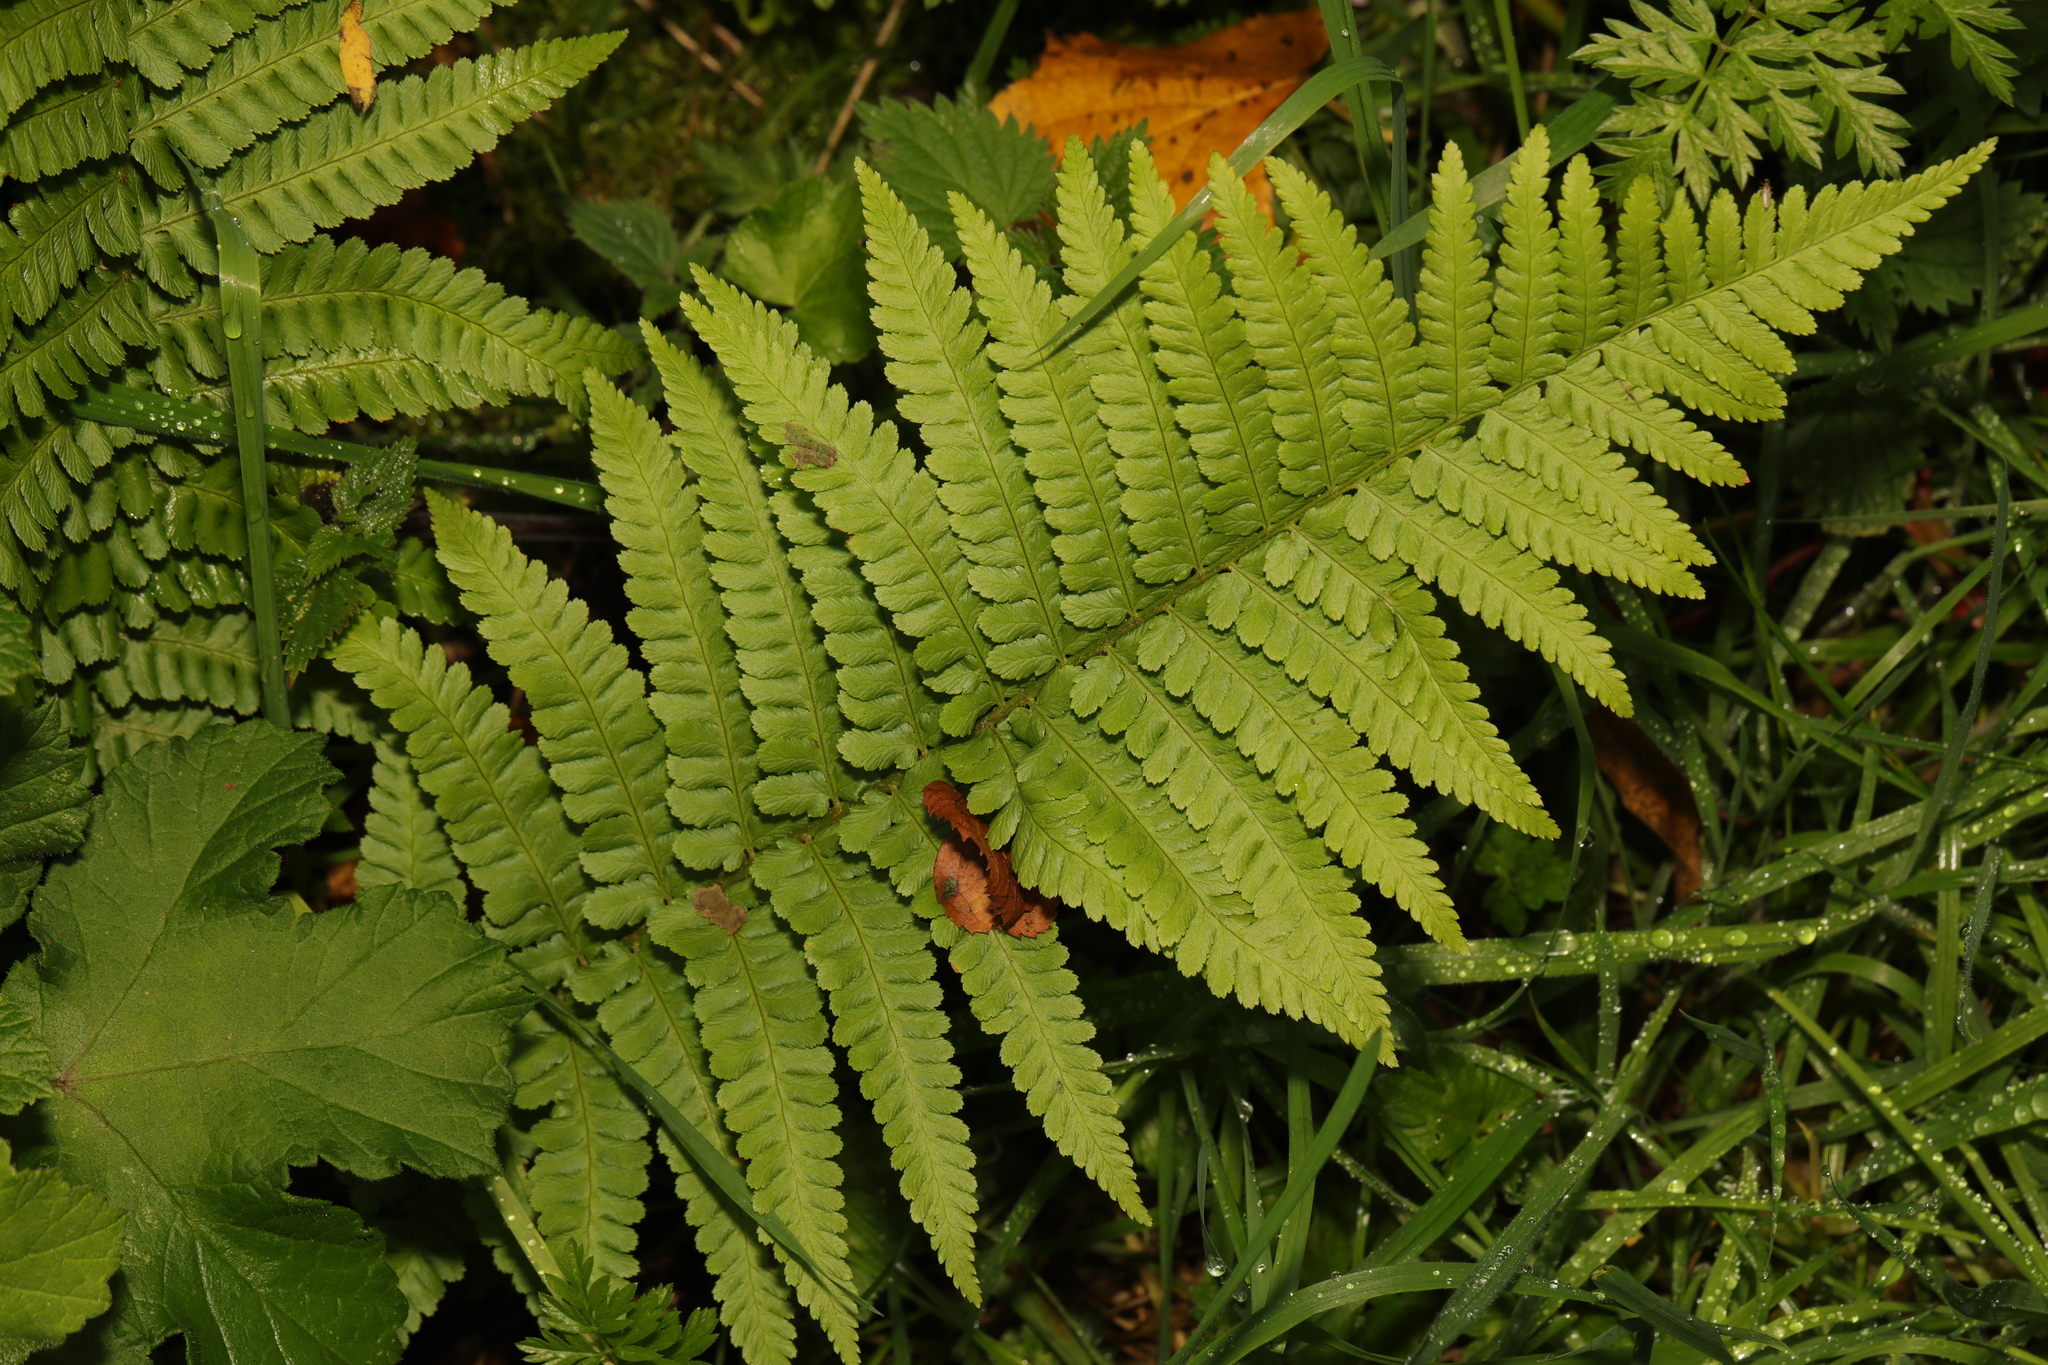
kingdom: Plantae
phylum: Tracheophyta
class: Polypodiopsida
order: Polypodiales
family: Dryopteridaceae
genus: Dryopteris
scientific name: Dryopteris filix-mas
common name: Male fern
